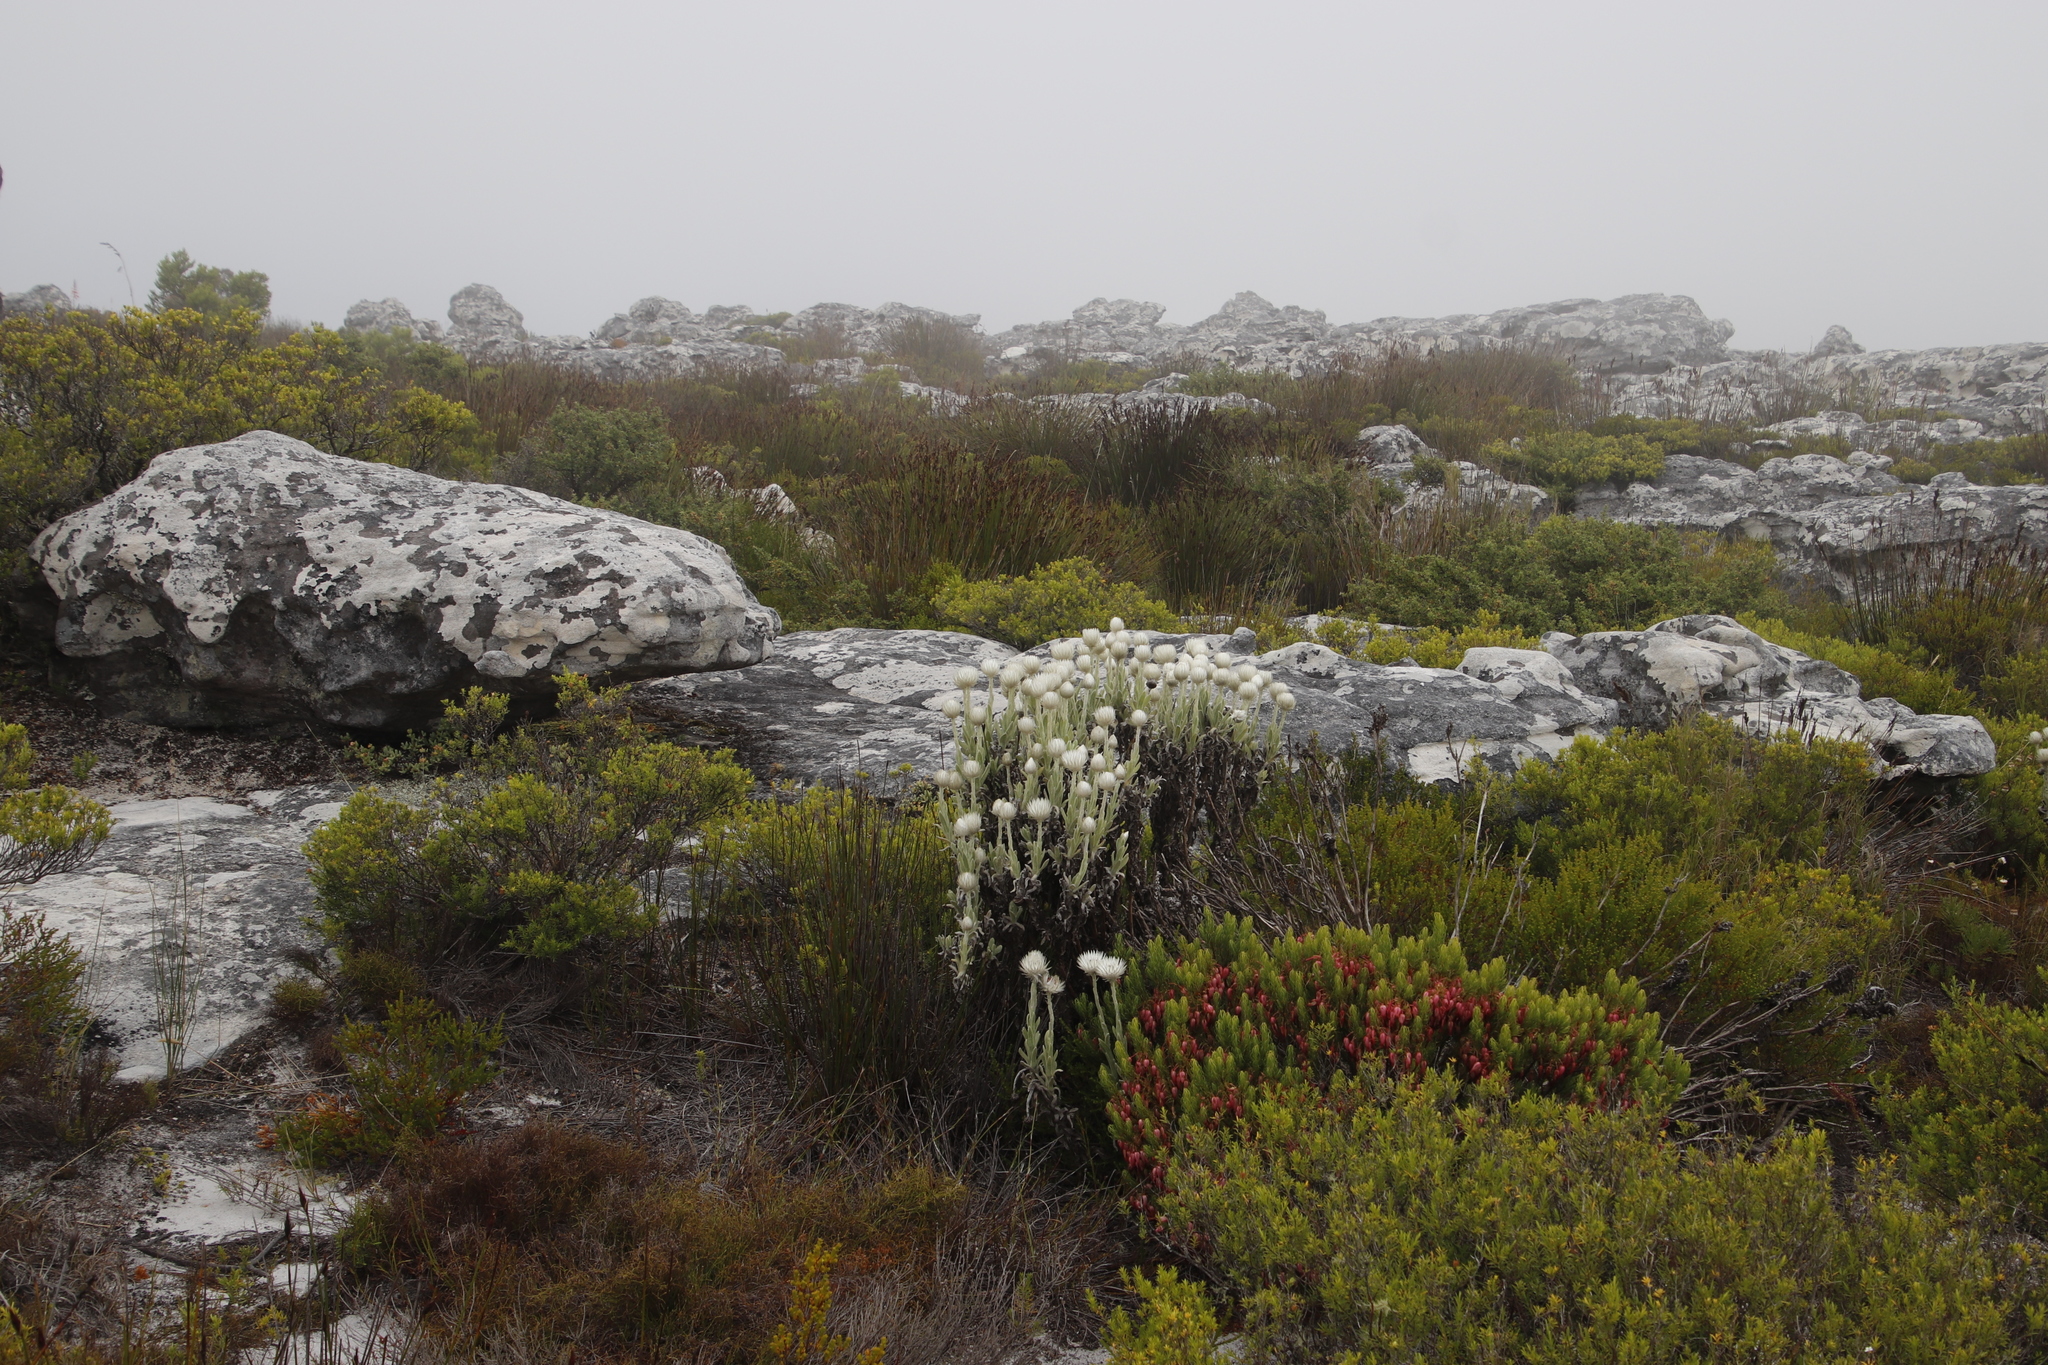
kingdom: Plantae
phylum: Tracheophyta
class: Magnoliopsida
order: Asterales
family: Asteraceae
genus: Syncarpha
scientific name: Syncarpha vestita
